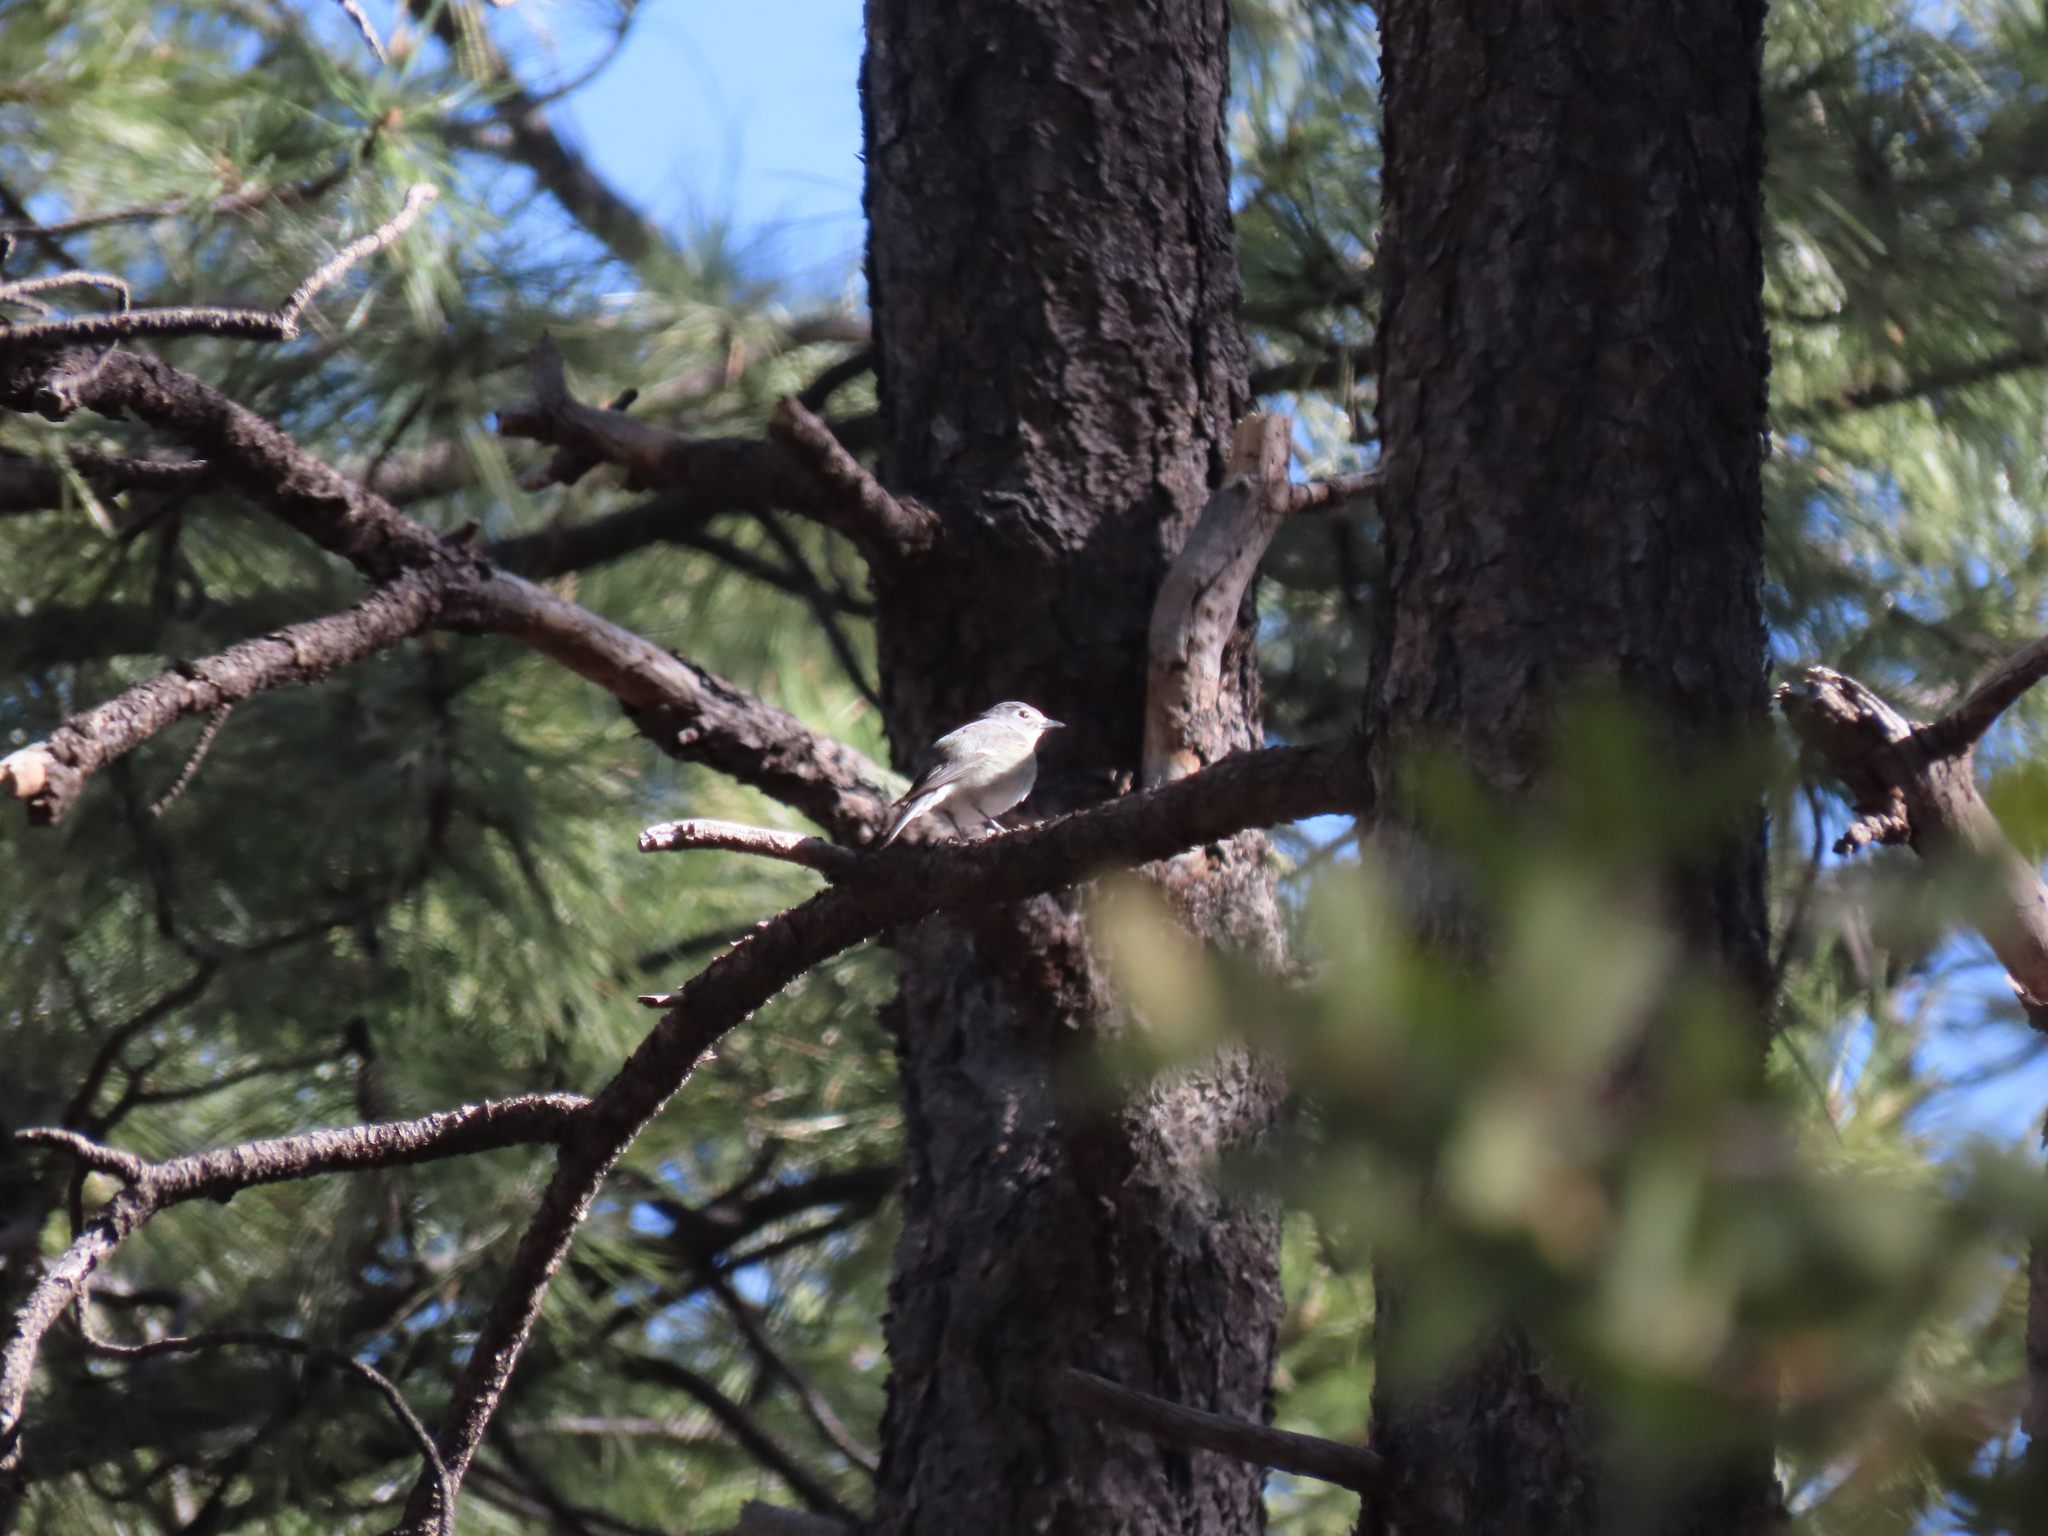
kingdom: Animalia
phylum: Chordata
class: Aves
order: Passeriformes
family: Vireonidae
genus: Vireo
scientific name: Vireo plumbeus
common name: Plumbeous vireo
